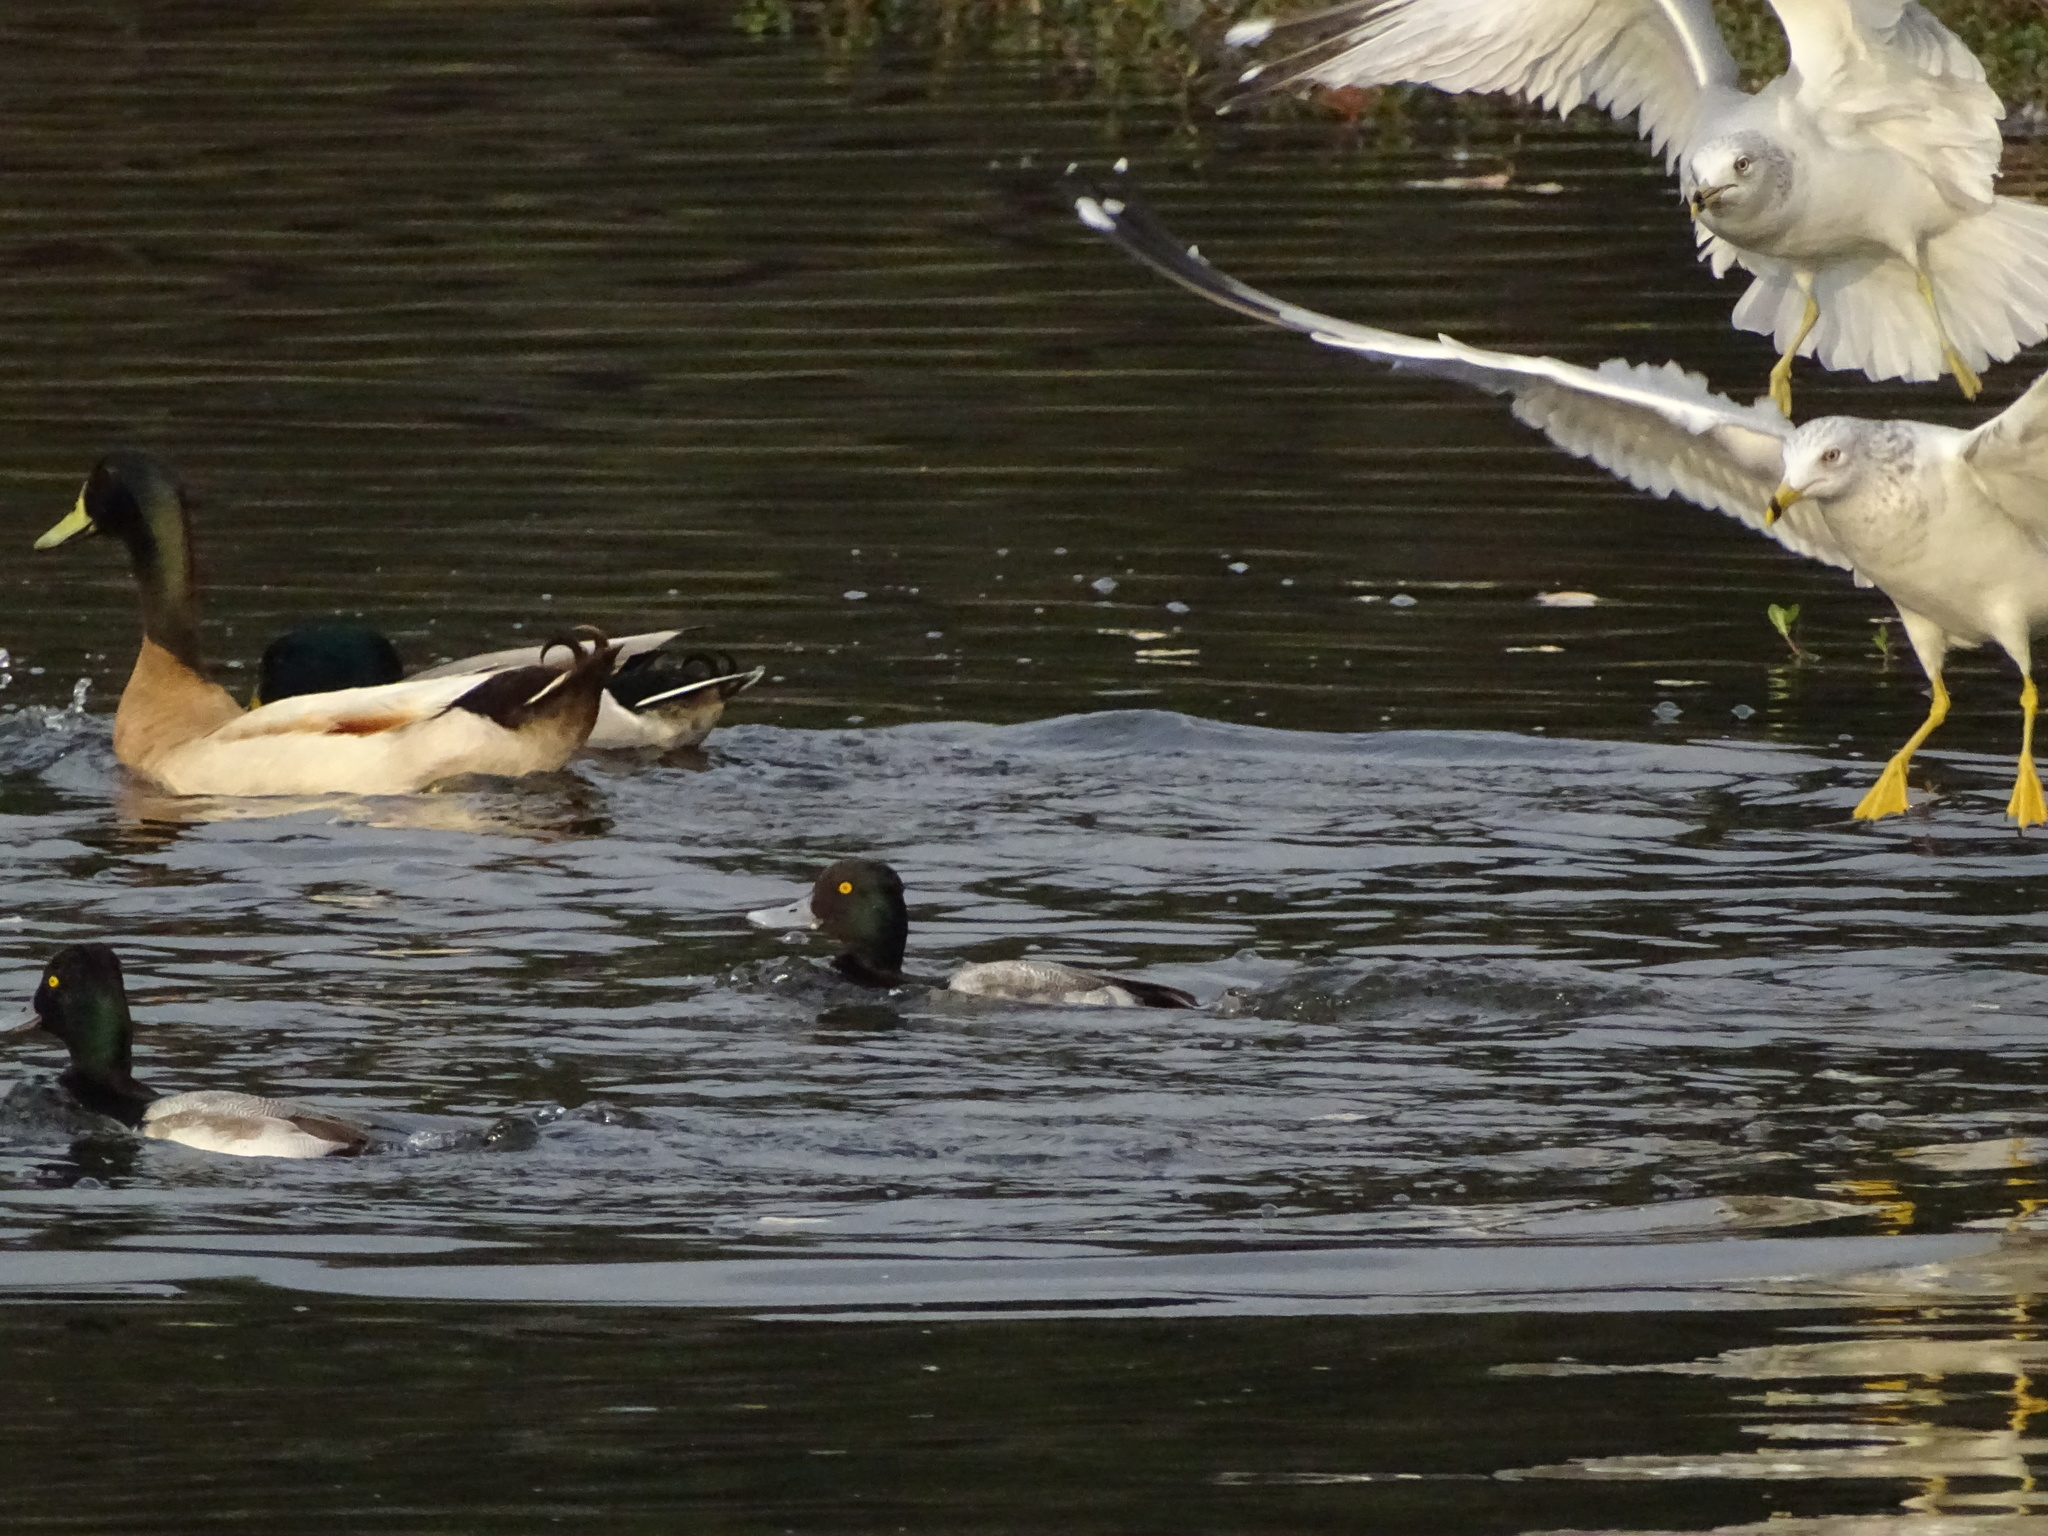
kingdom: Animalia
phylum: Chordata
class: Aves
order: Anseriformes
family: Anatidae
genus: Aythya
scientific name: Aythya marila
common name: Greater scaup
